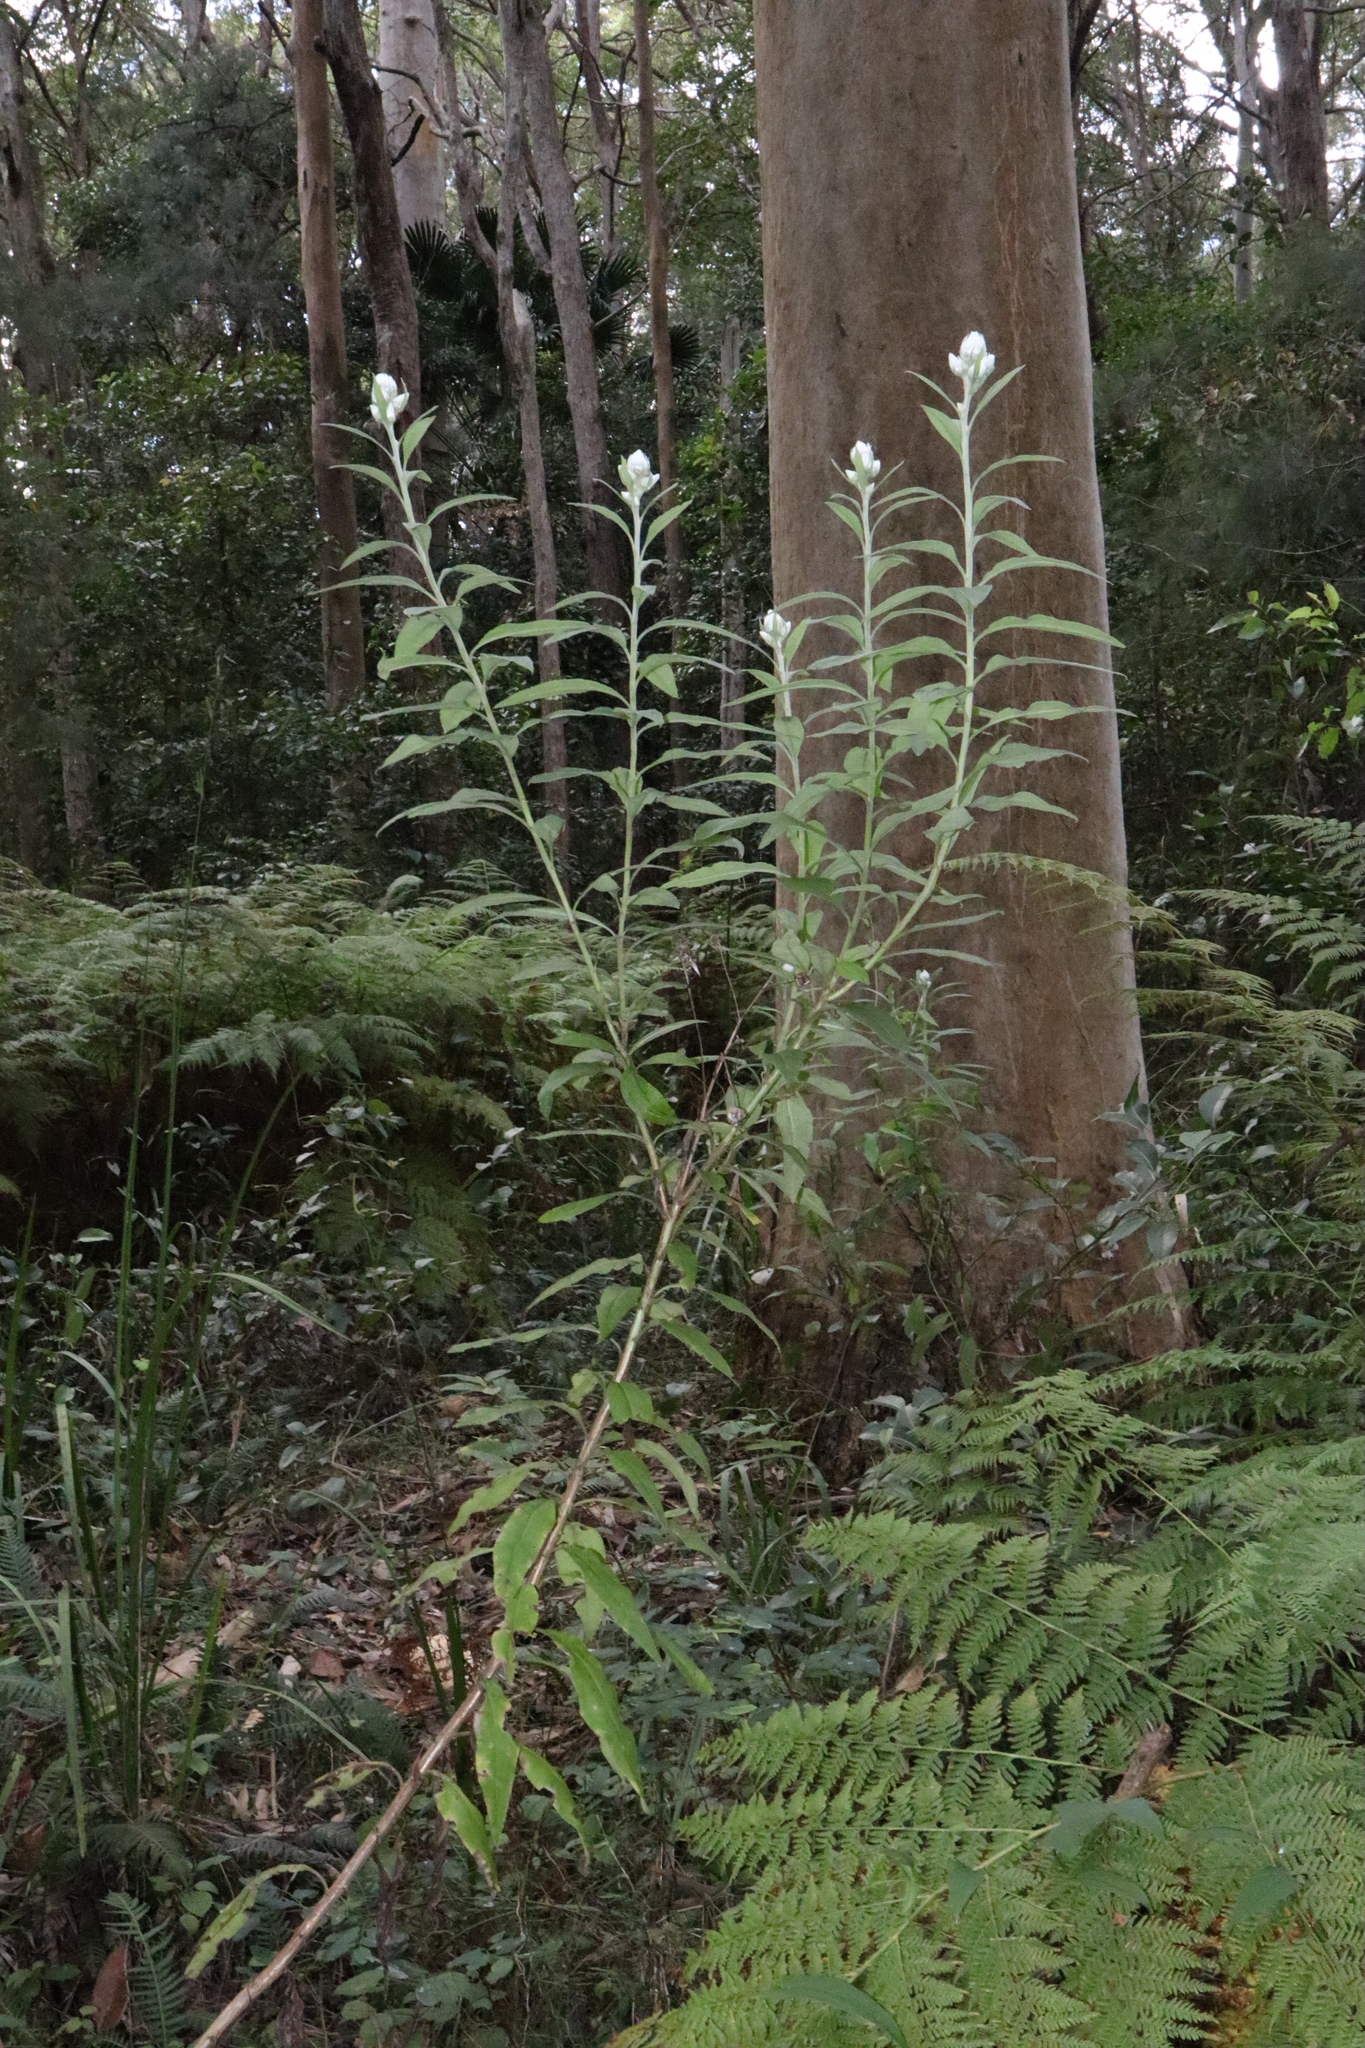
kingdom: Plantae
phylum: Tracheophyta
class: Magnoliopsida
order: Asterales
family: Asteraceae
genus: Leucozoma
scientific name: Leucozoma elatum
